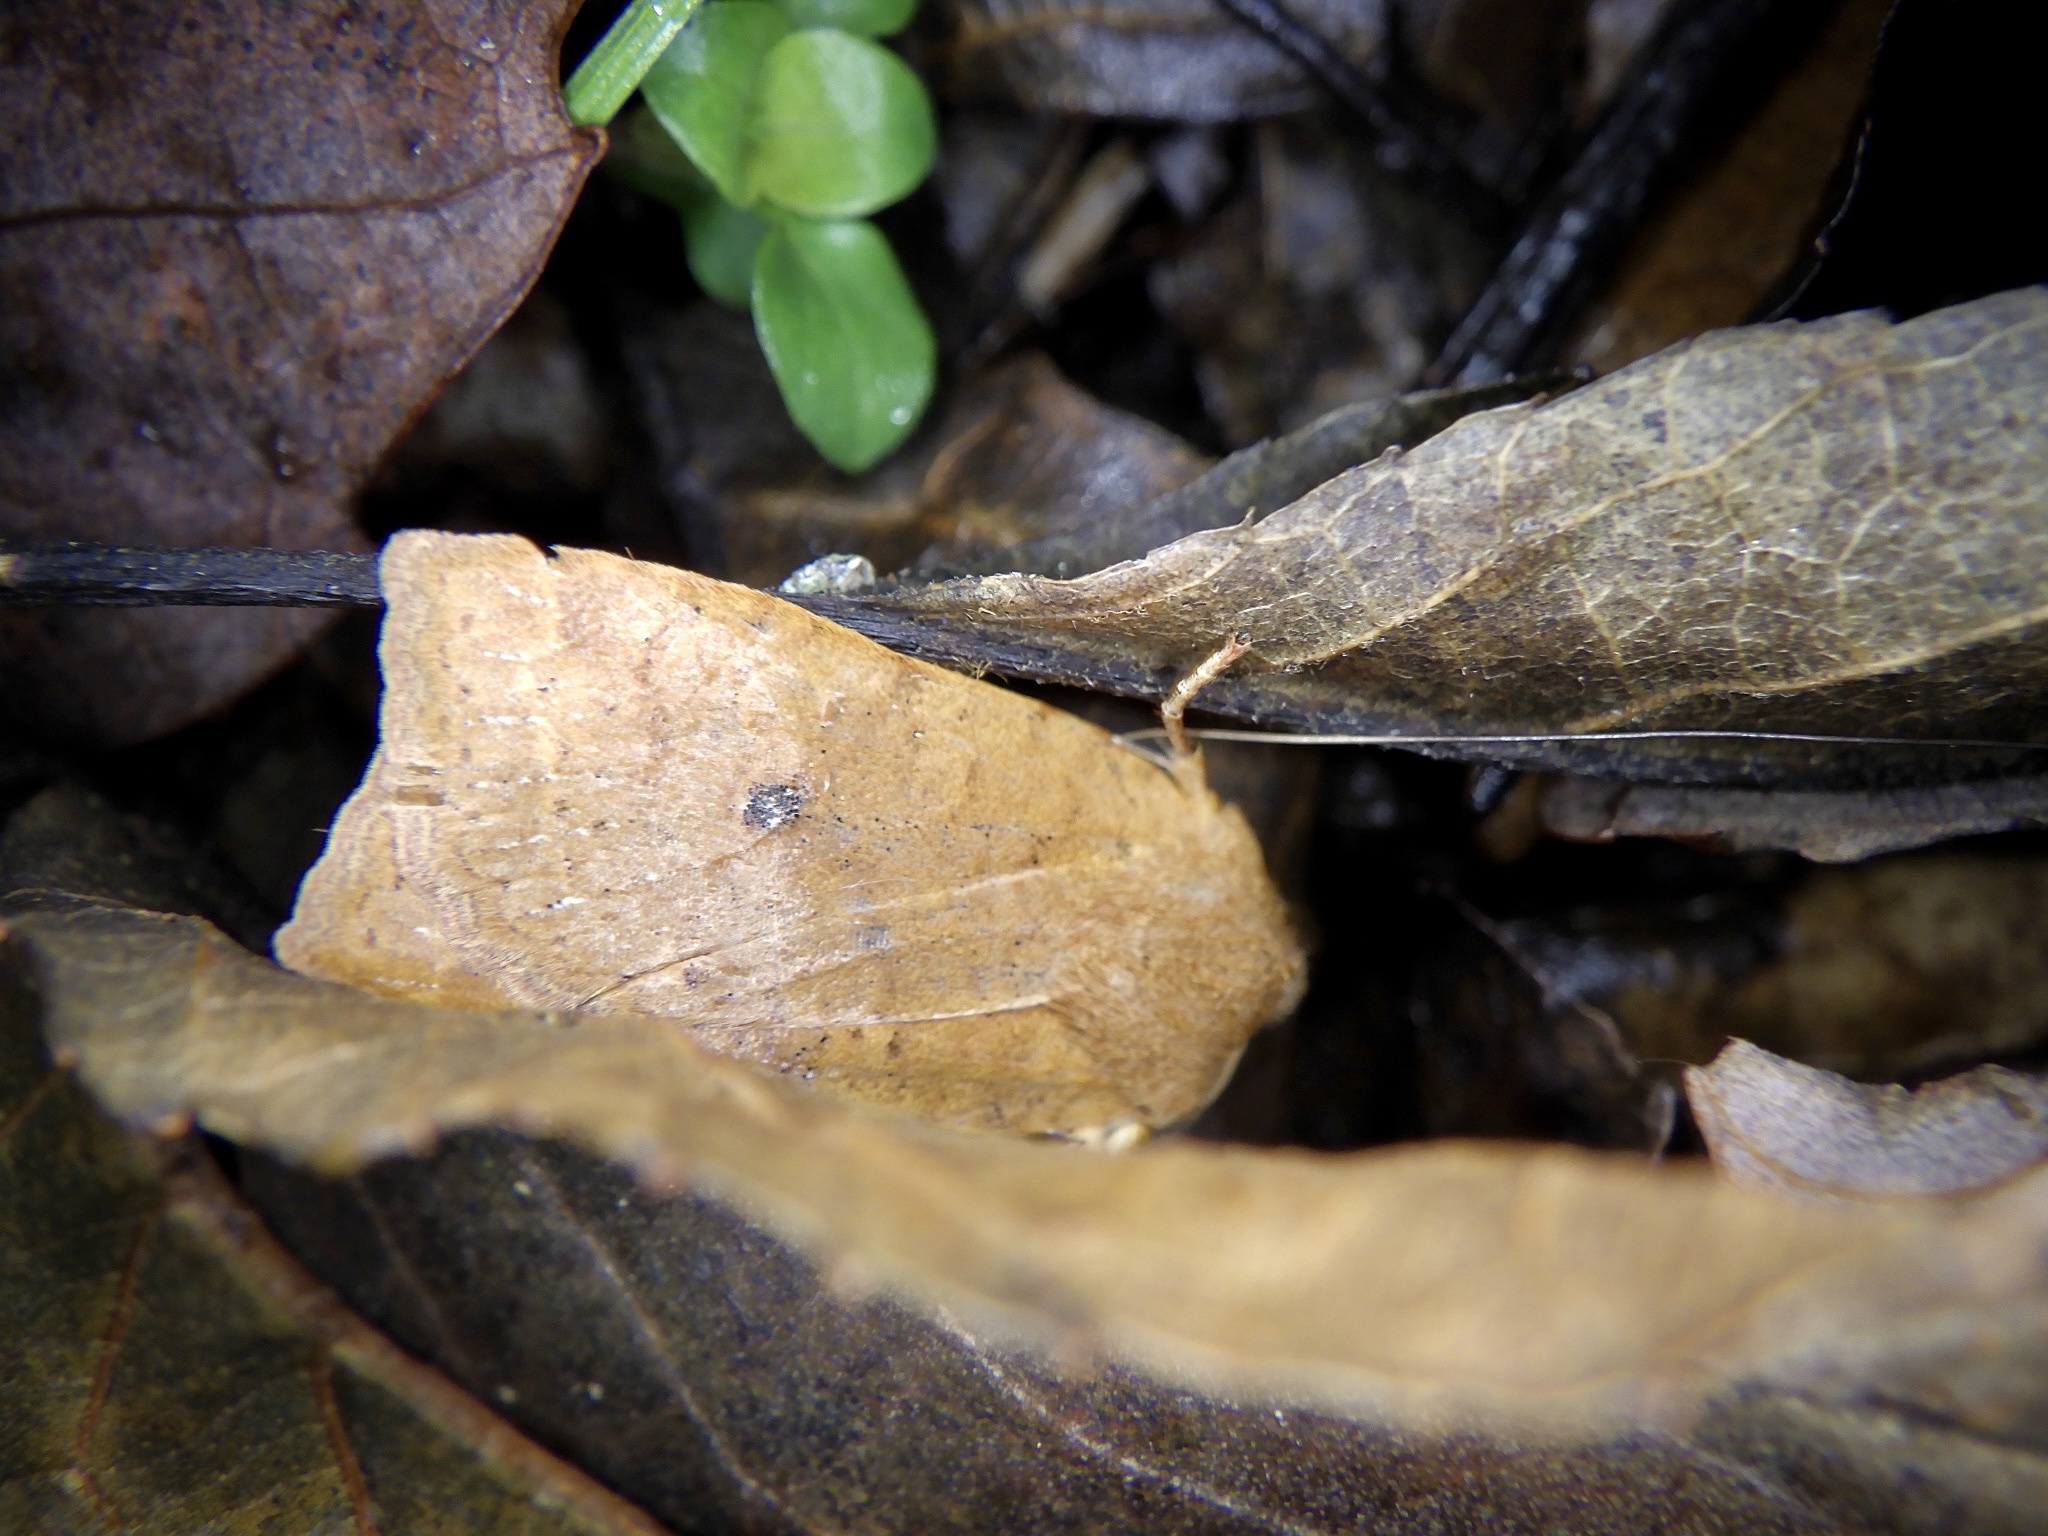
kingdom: Animalia
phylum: Arthropoda
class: Insecta
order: Lepidoptera
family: Noctuidae
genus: Conistra
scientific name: Conistra albipuncta
